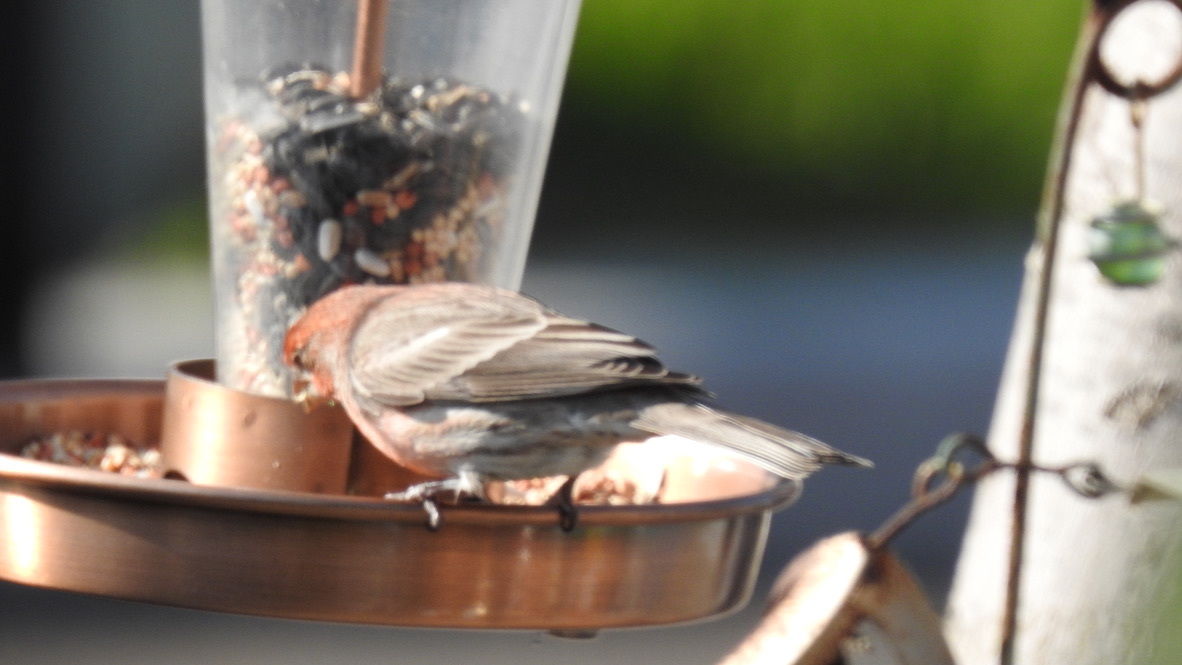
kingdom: Animalia
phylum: Chordata
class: Aves
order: Passeriformes
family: Fringillidae
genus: Haemorhous
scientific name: Haemorhous mexicanus
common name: House finch
